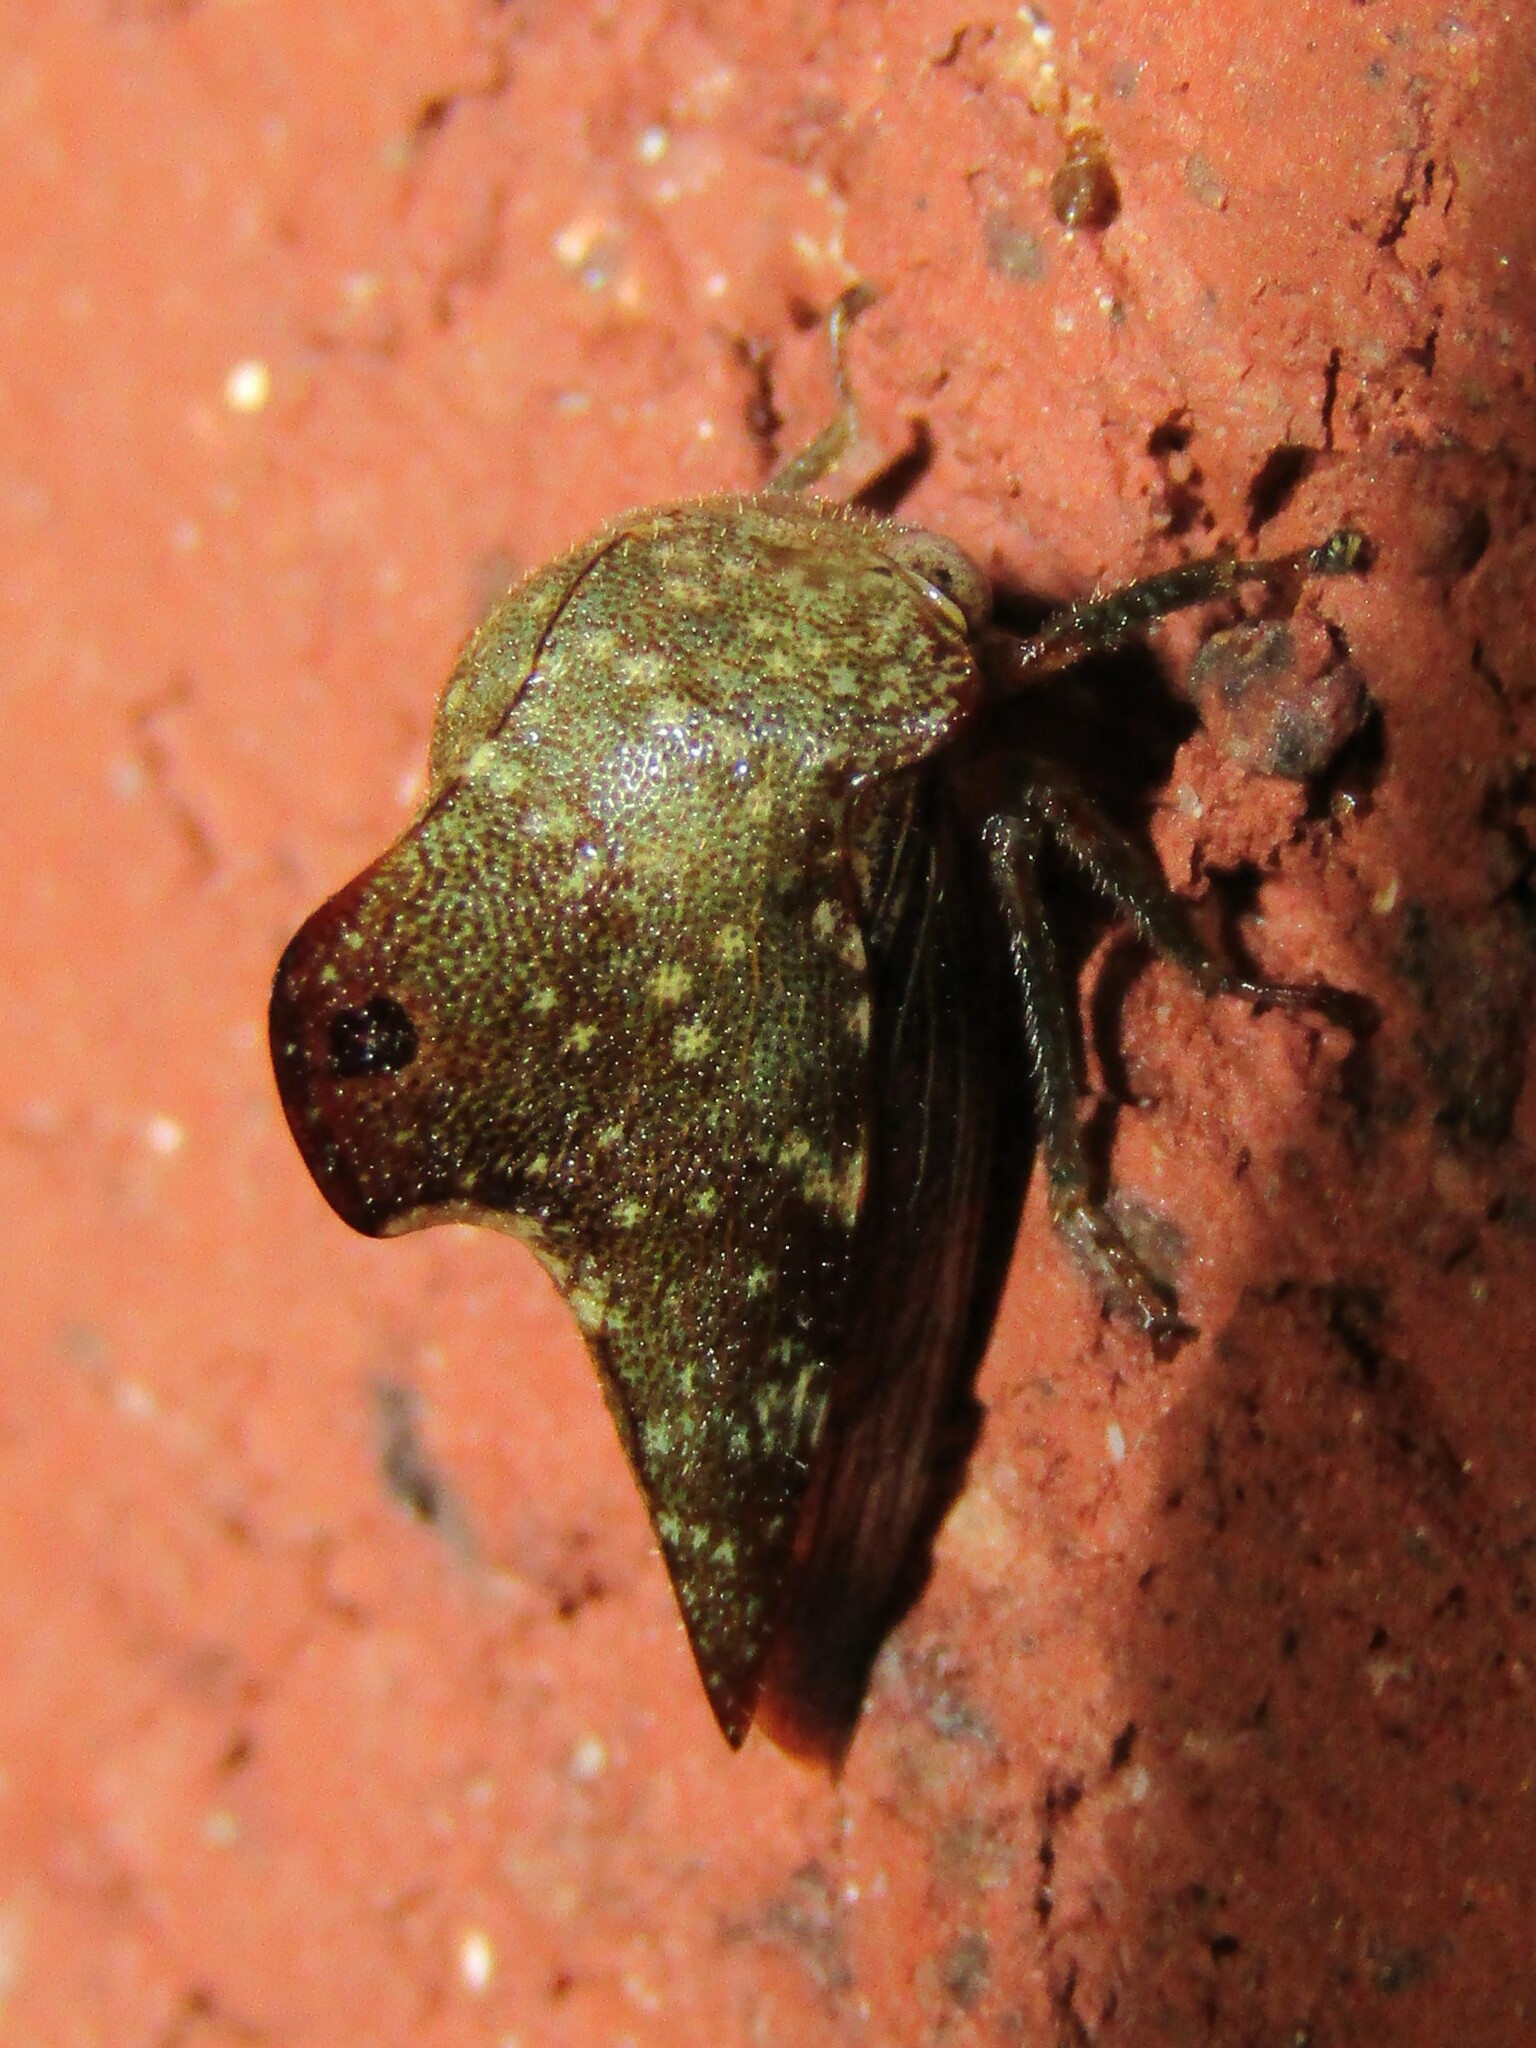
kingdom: Animalia
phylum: Arthropoda
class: Insecta
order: Hemiptera
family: Membracidae
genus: Telamona
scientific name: Telamona monticola
